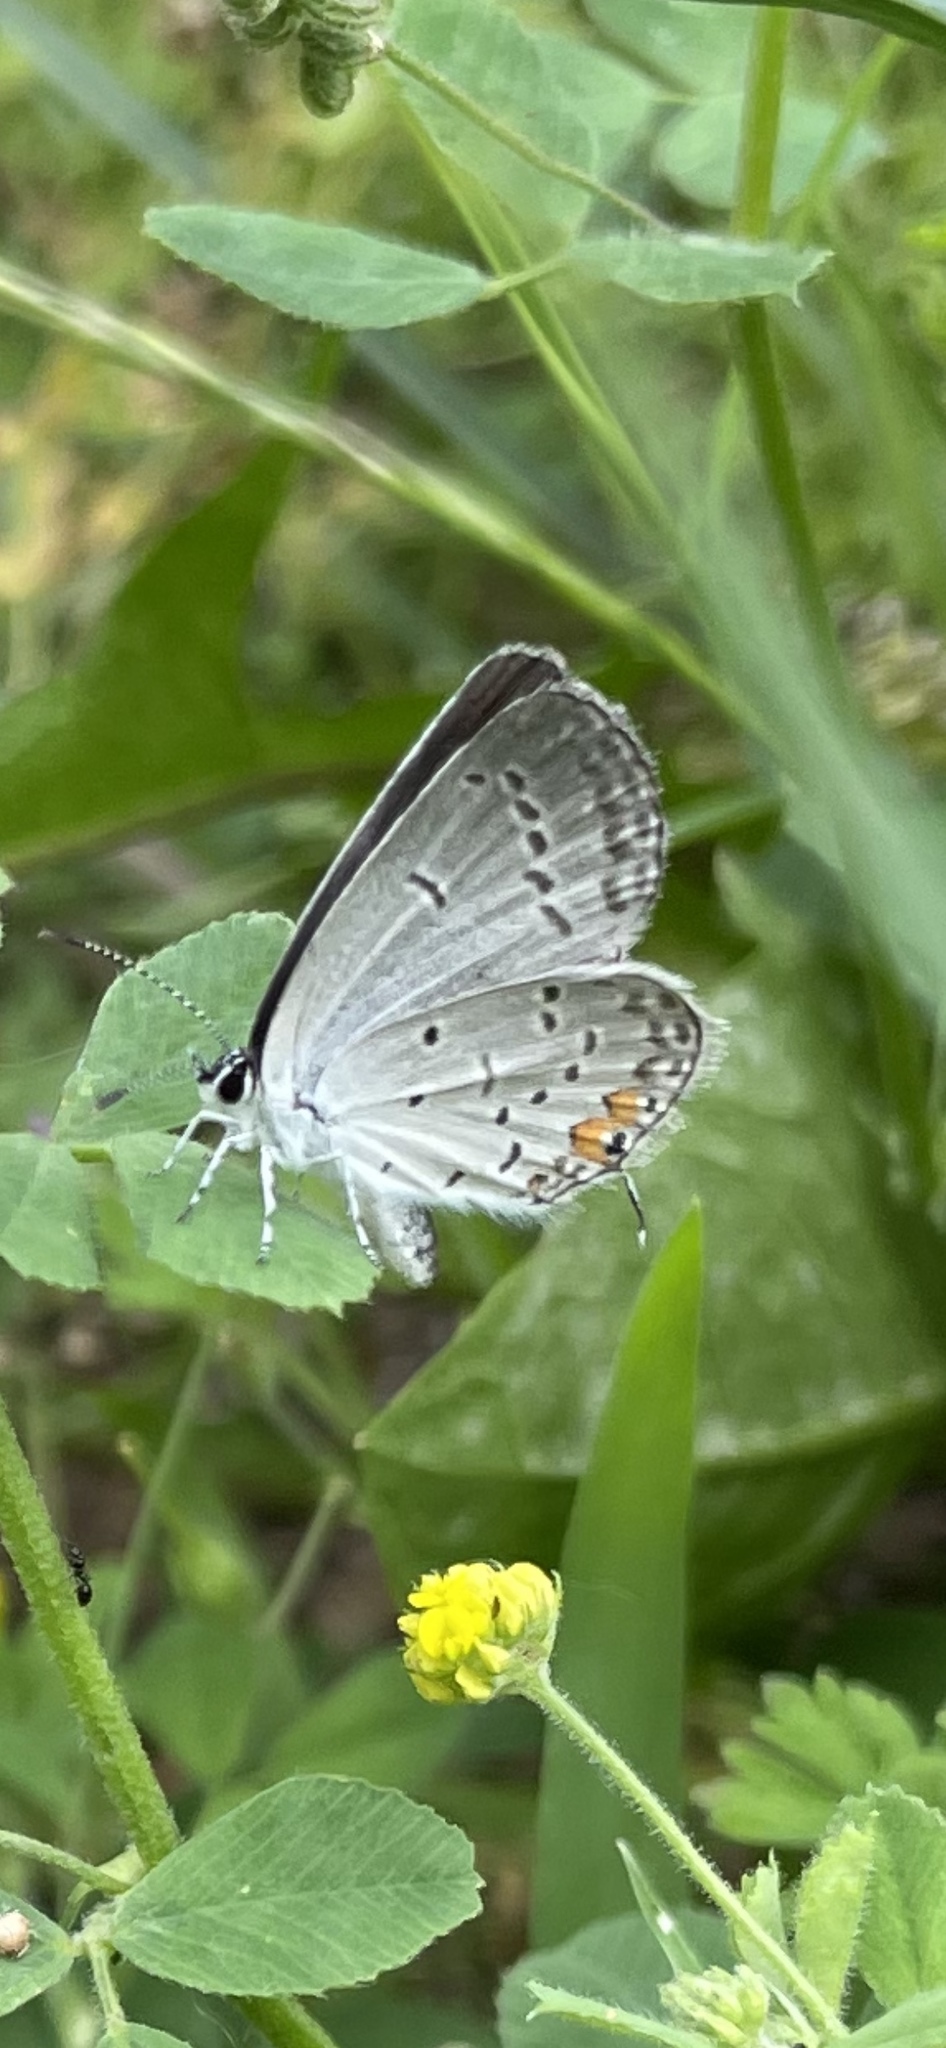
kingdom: Animalia
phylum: Arthropoda
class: Insecta
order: Lepidoptera
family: Lycaenidae
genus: Elkalyce
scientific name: Elkalyce comyntas
